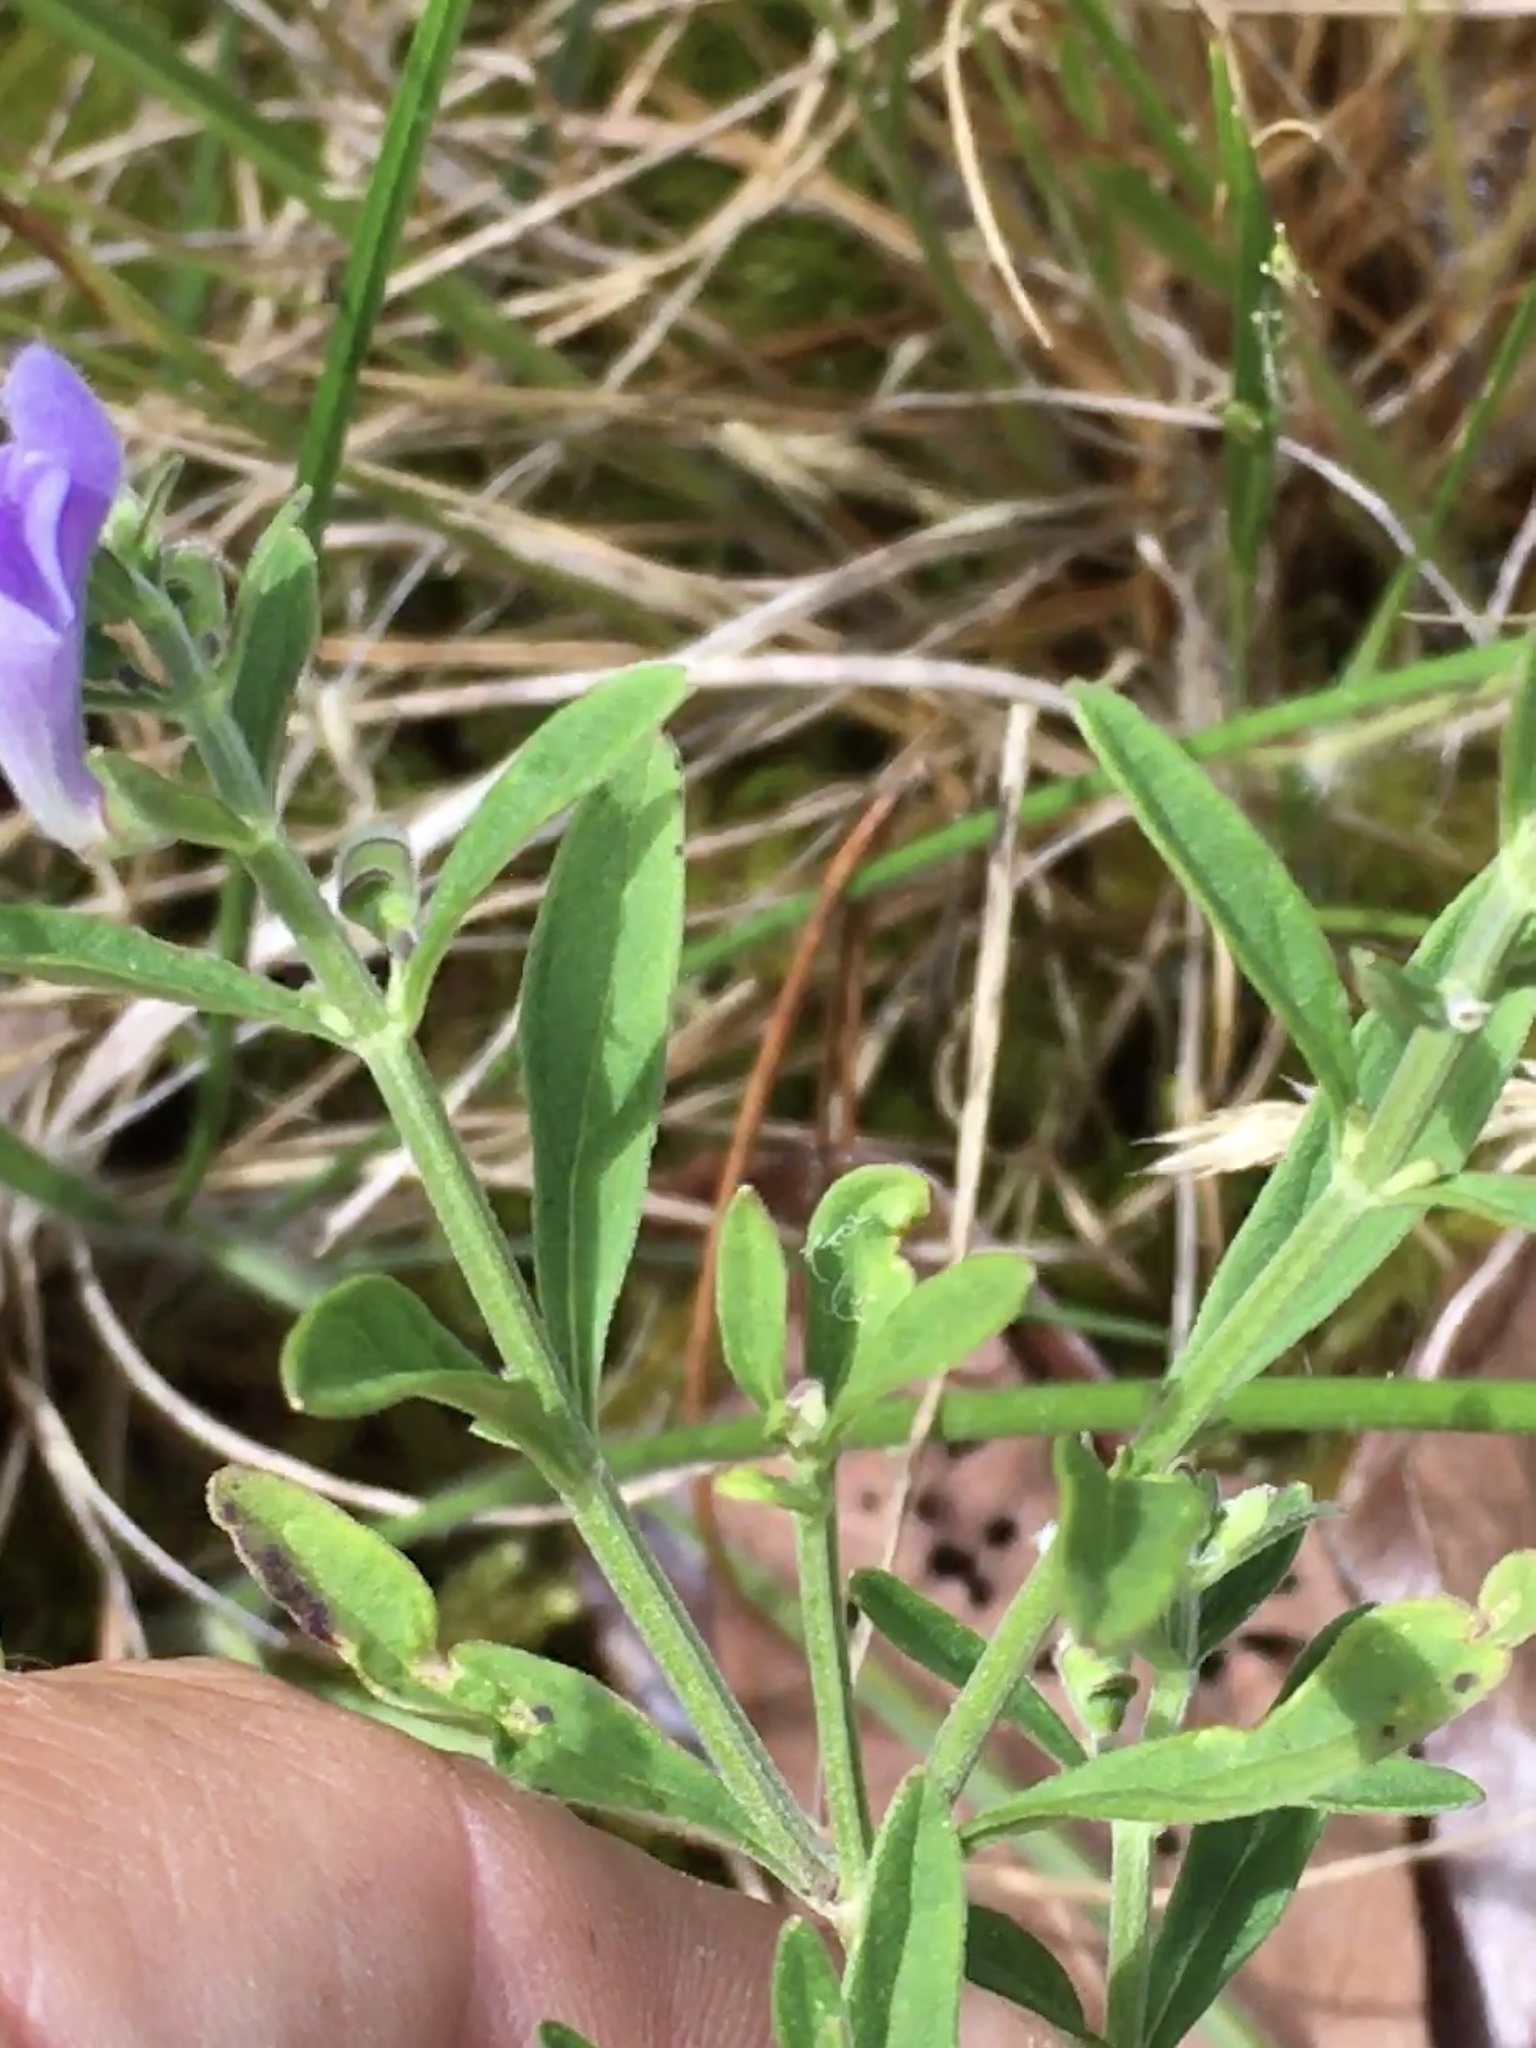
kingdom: Plantae
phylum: Tracheophyta
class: Magnoliopsida
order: Lamiales
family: Lamiaceae
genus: Scutellaria
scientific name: Scutellaria integrifolia
